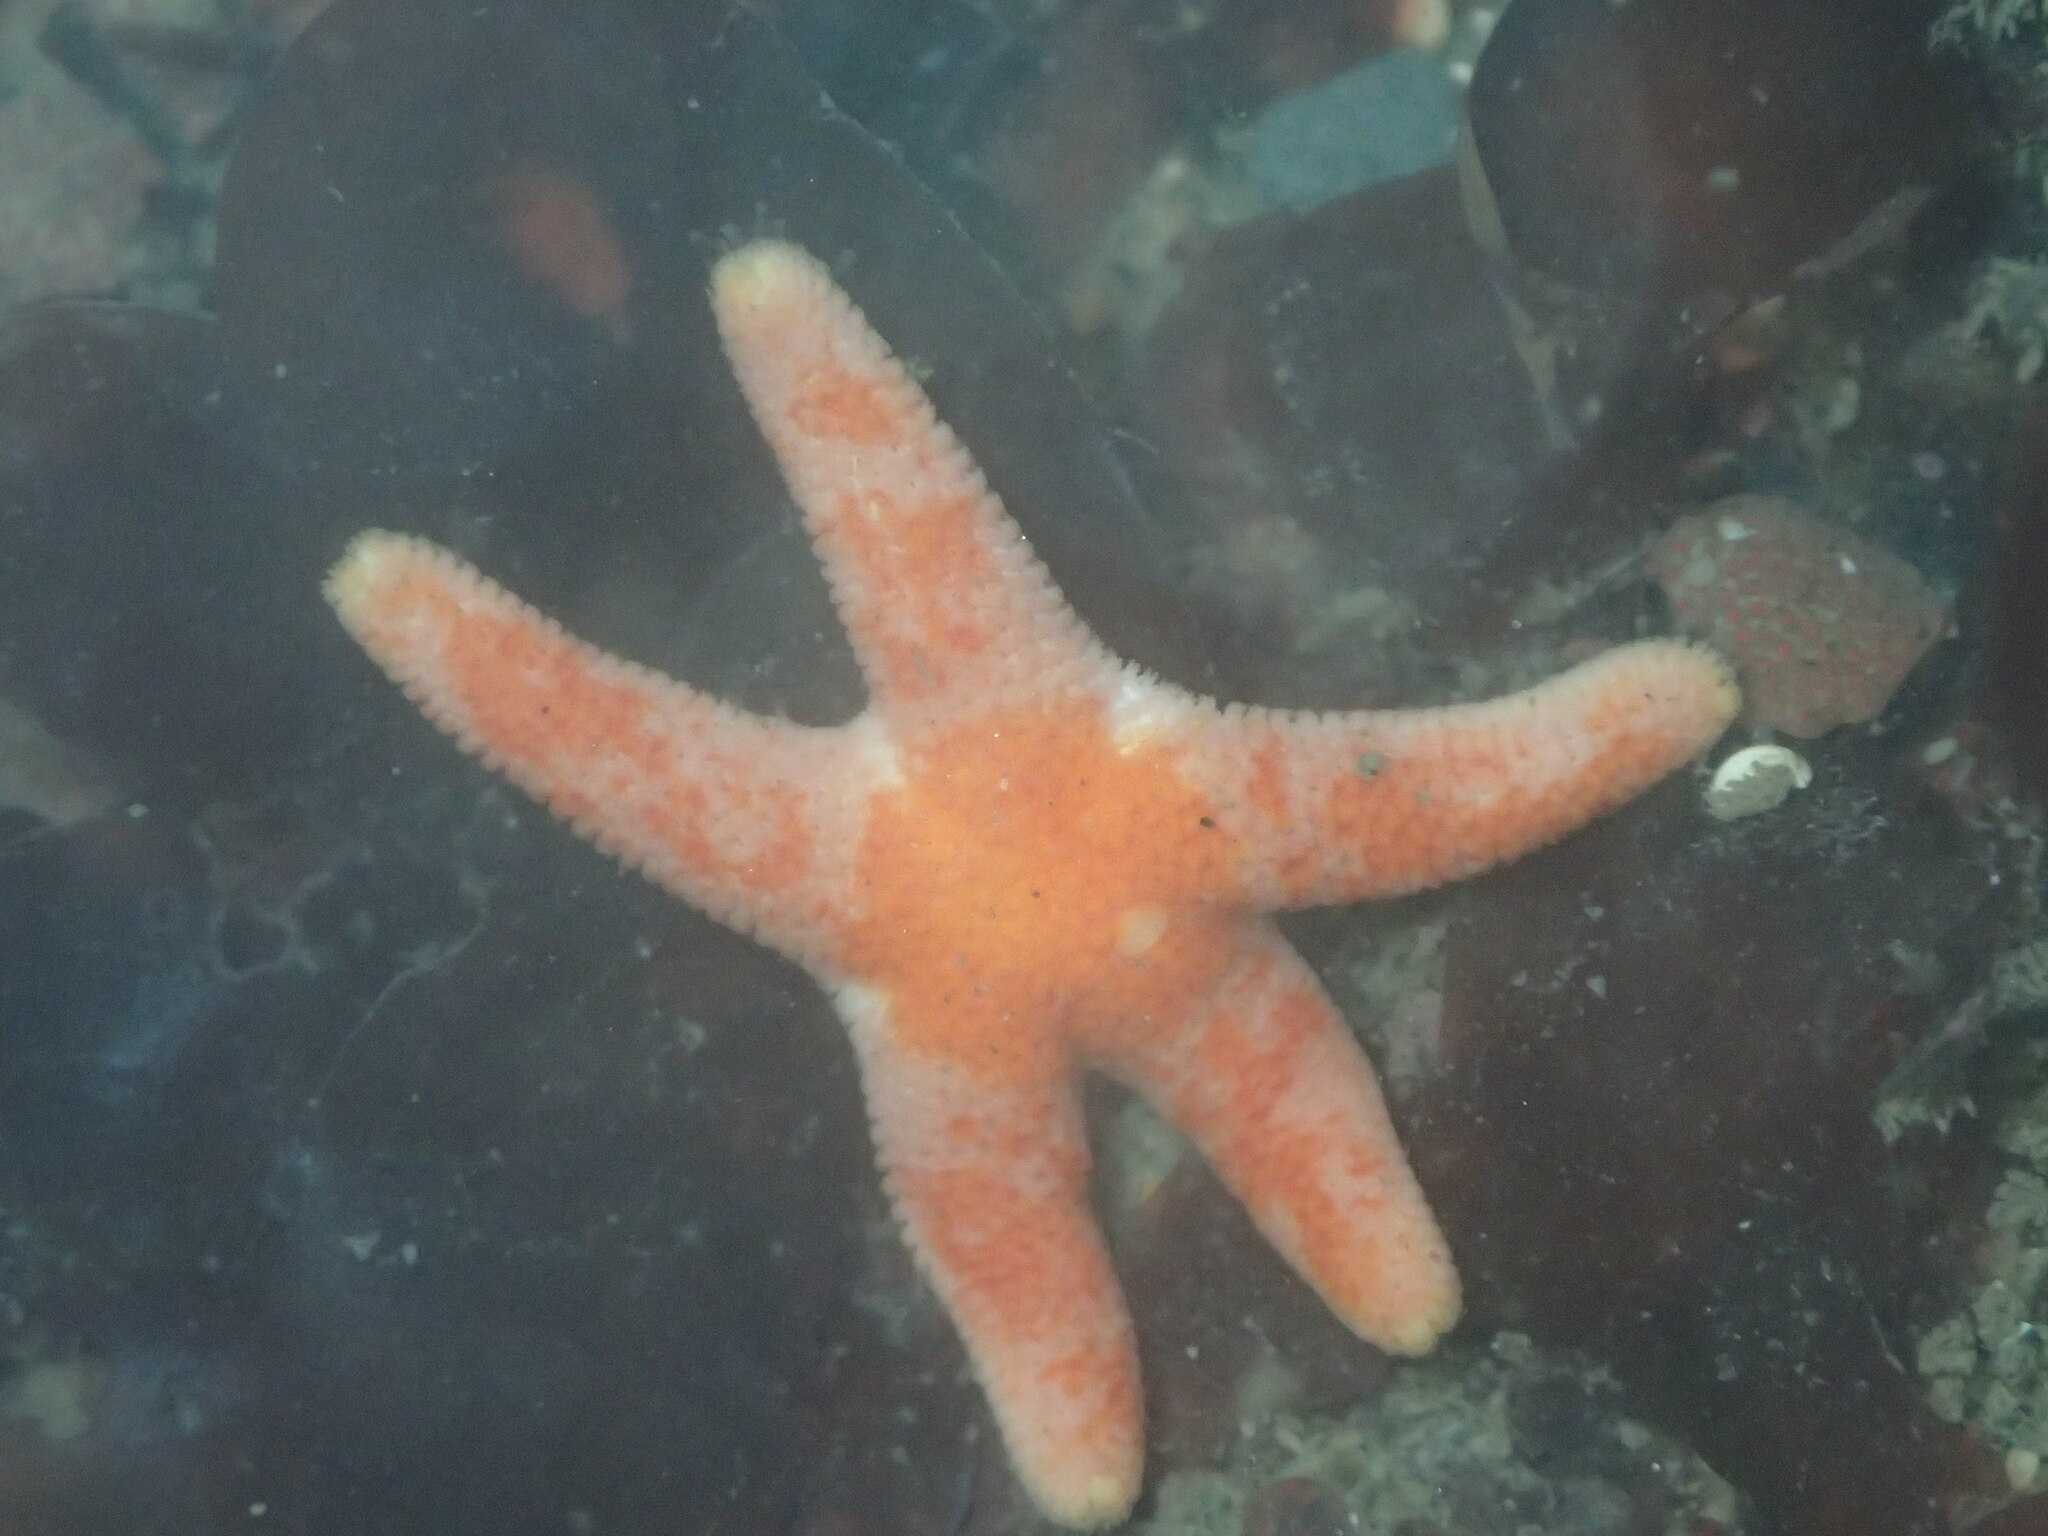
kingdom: Animalia
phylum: Echinodermata
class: Asteroidea
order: Spinulosida
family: Echinasteridae
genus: Henricia
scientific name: Henricia pumila
